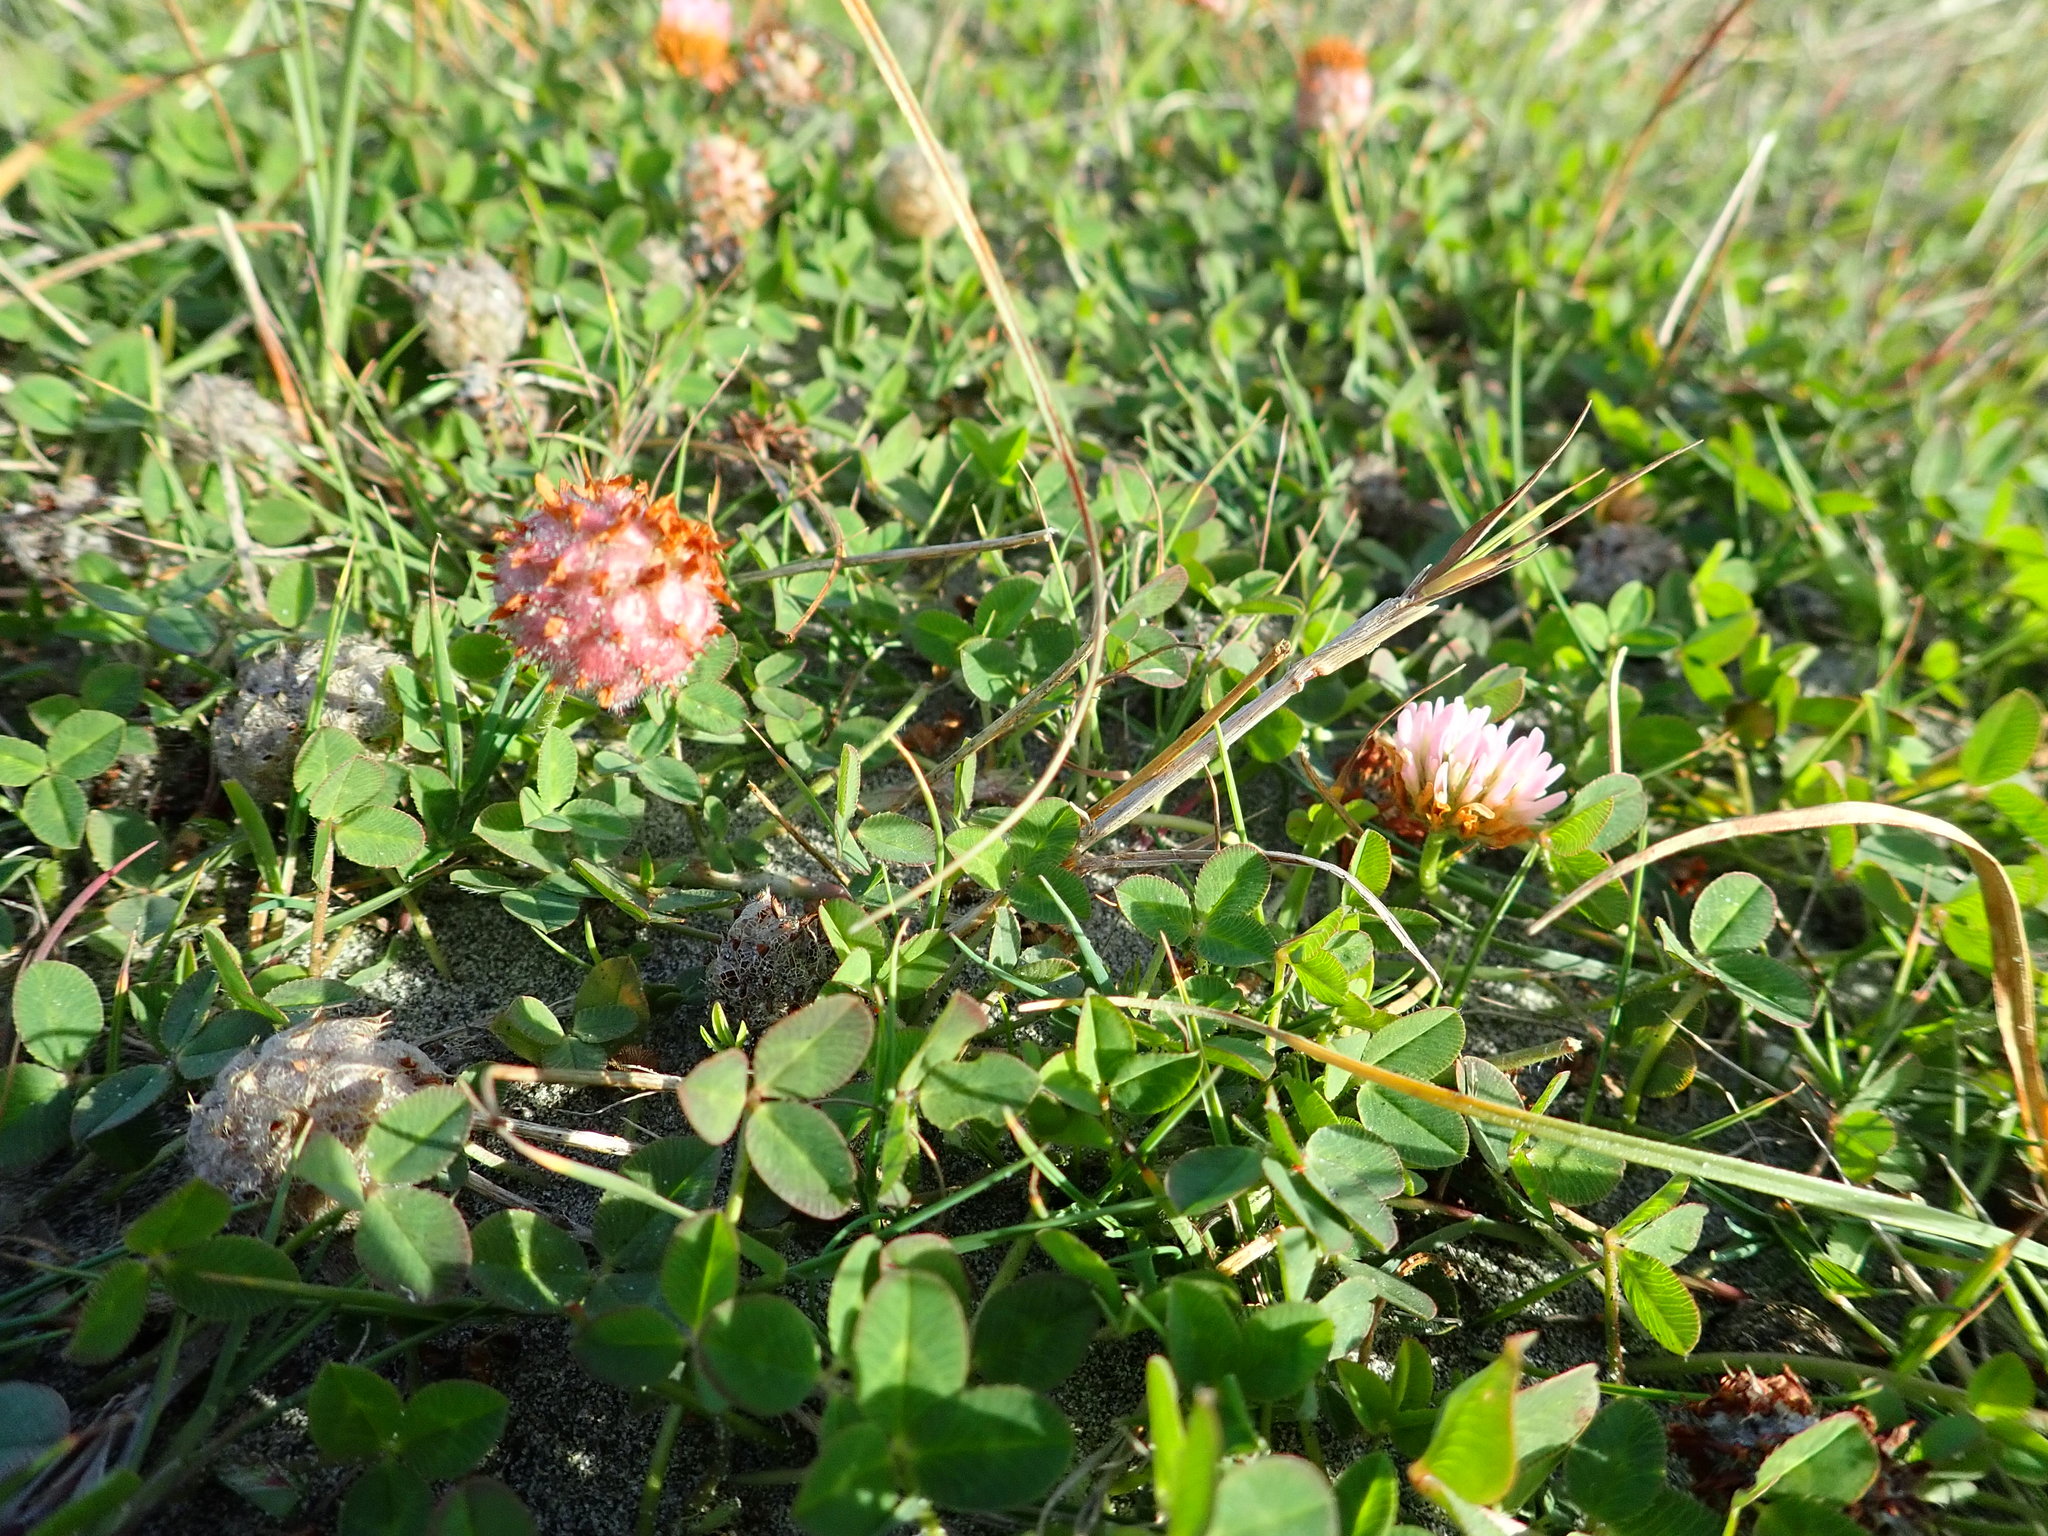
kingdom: Plantae
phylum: Tracheophyta
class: Magnoliopsida
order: Fabales
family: Fabaceae
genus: Trifolium
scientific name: Trifolium fragiferum
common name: Strawberry clover
